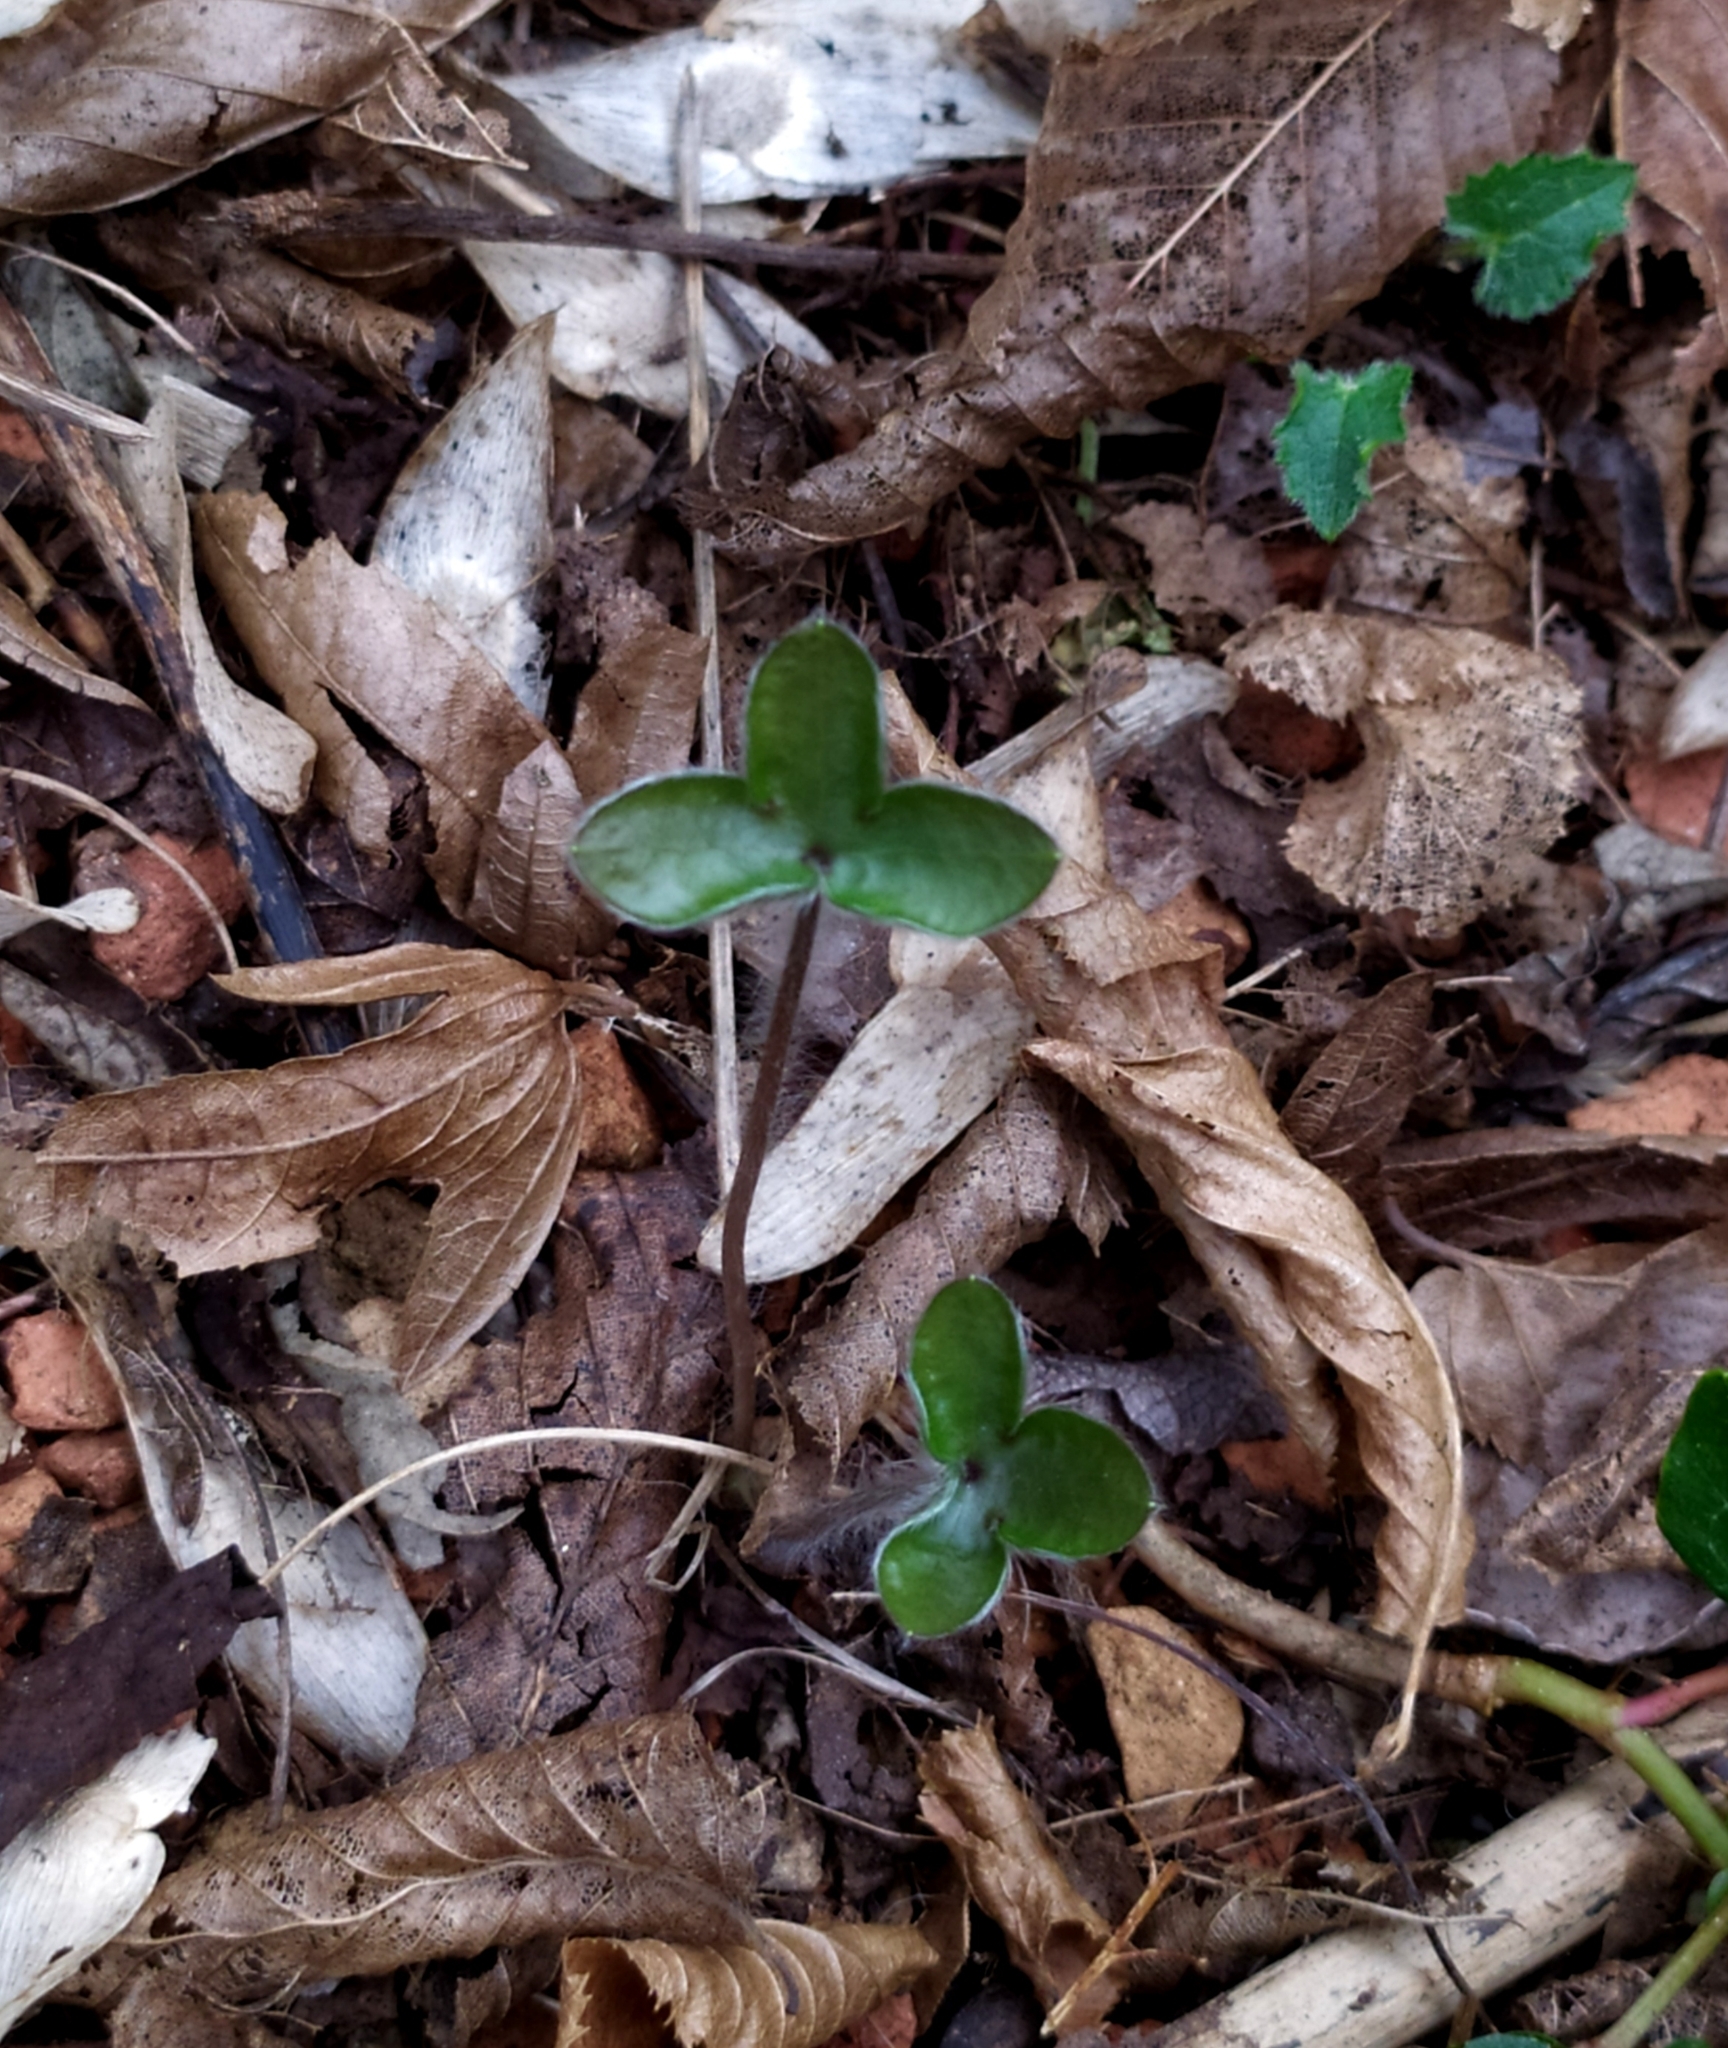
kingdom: Plantae
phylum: Tracheophyta
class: Magnoliopsida
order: Ranunculales
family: Ranunculaceae
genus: Hepatica
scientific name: Hepatica nobilis
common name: Liverleaf
